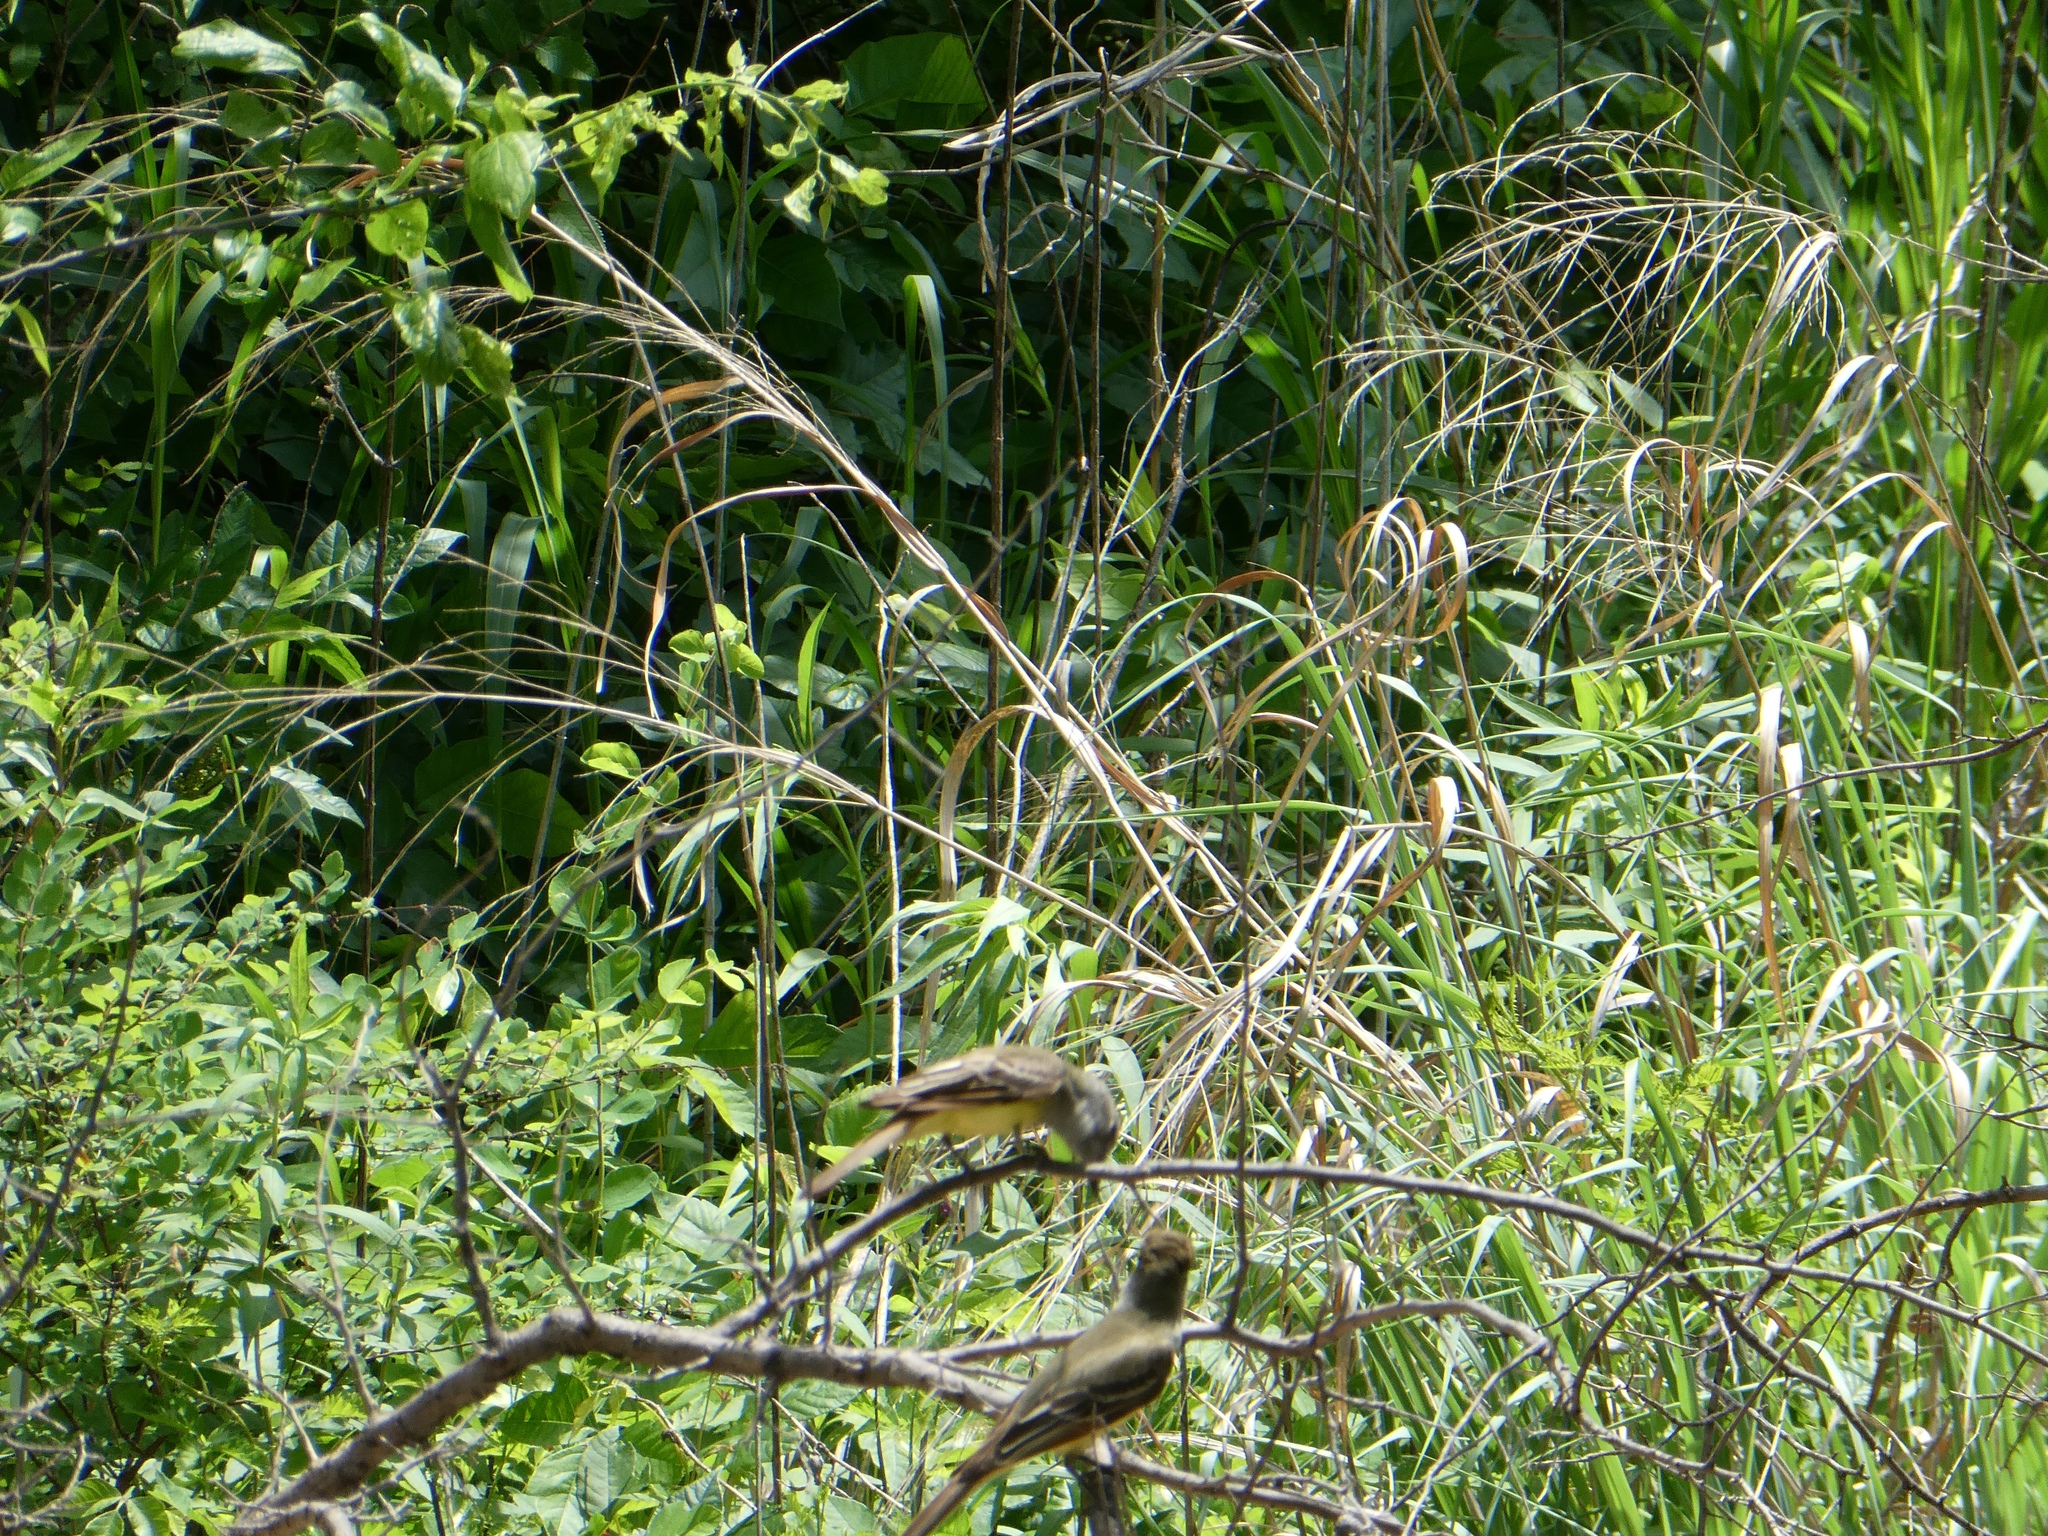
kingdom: Animalia
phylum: Chordata
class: Aves
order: Passeriformes
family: Tyrannidae
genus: Myiarchus
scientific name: Myiarchus crinitus
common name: Great crested flycatcher
